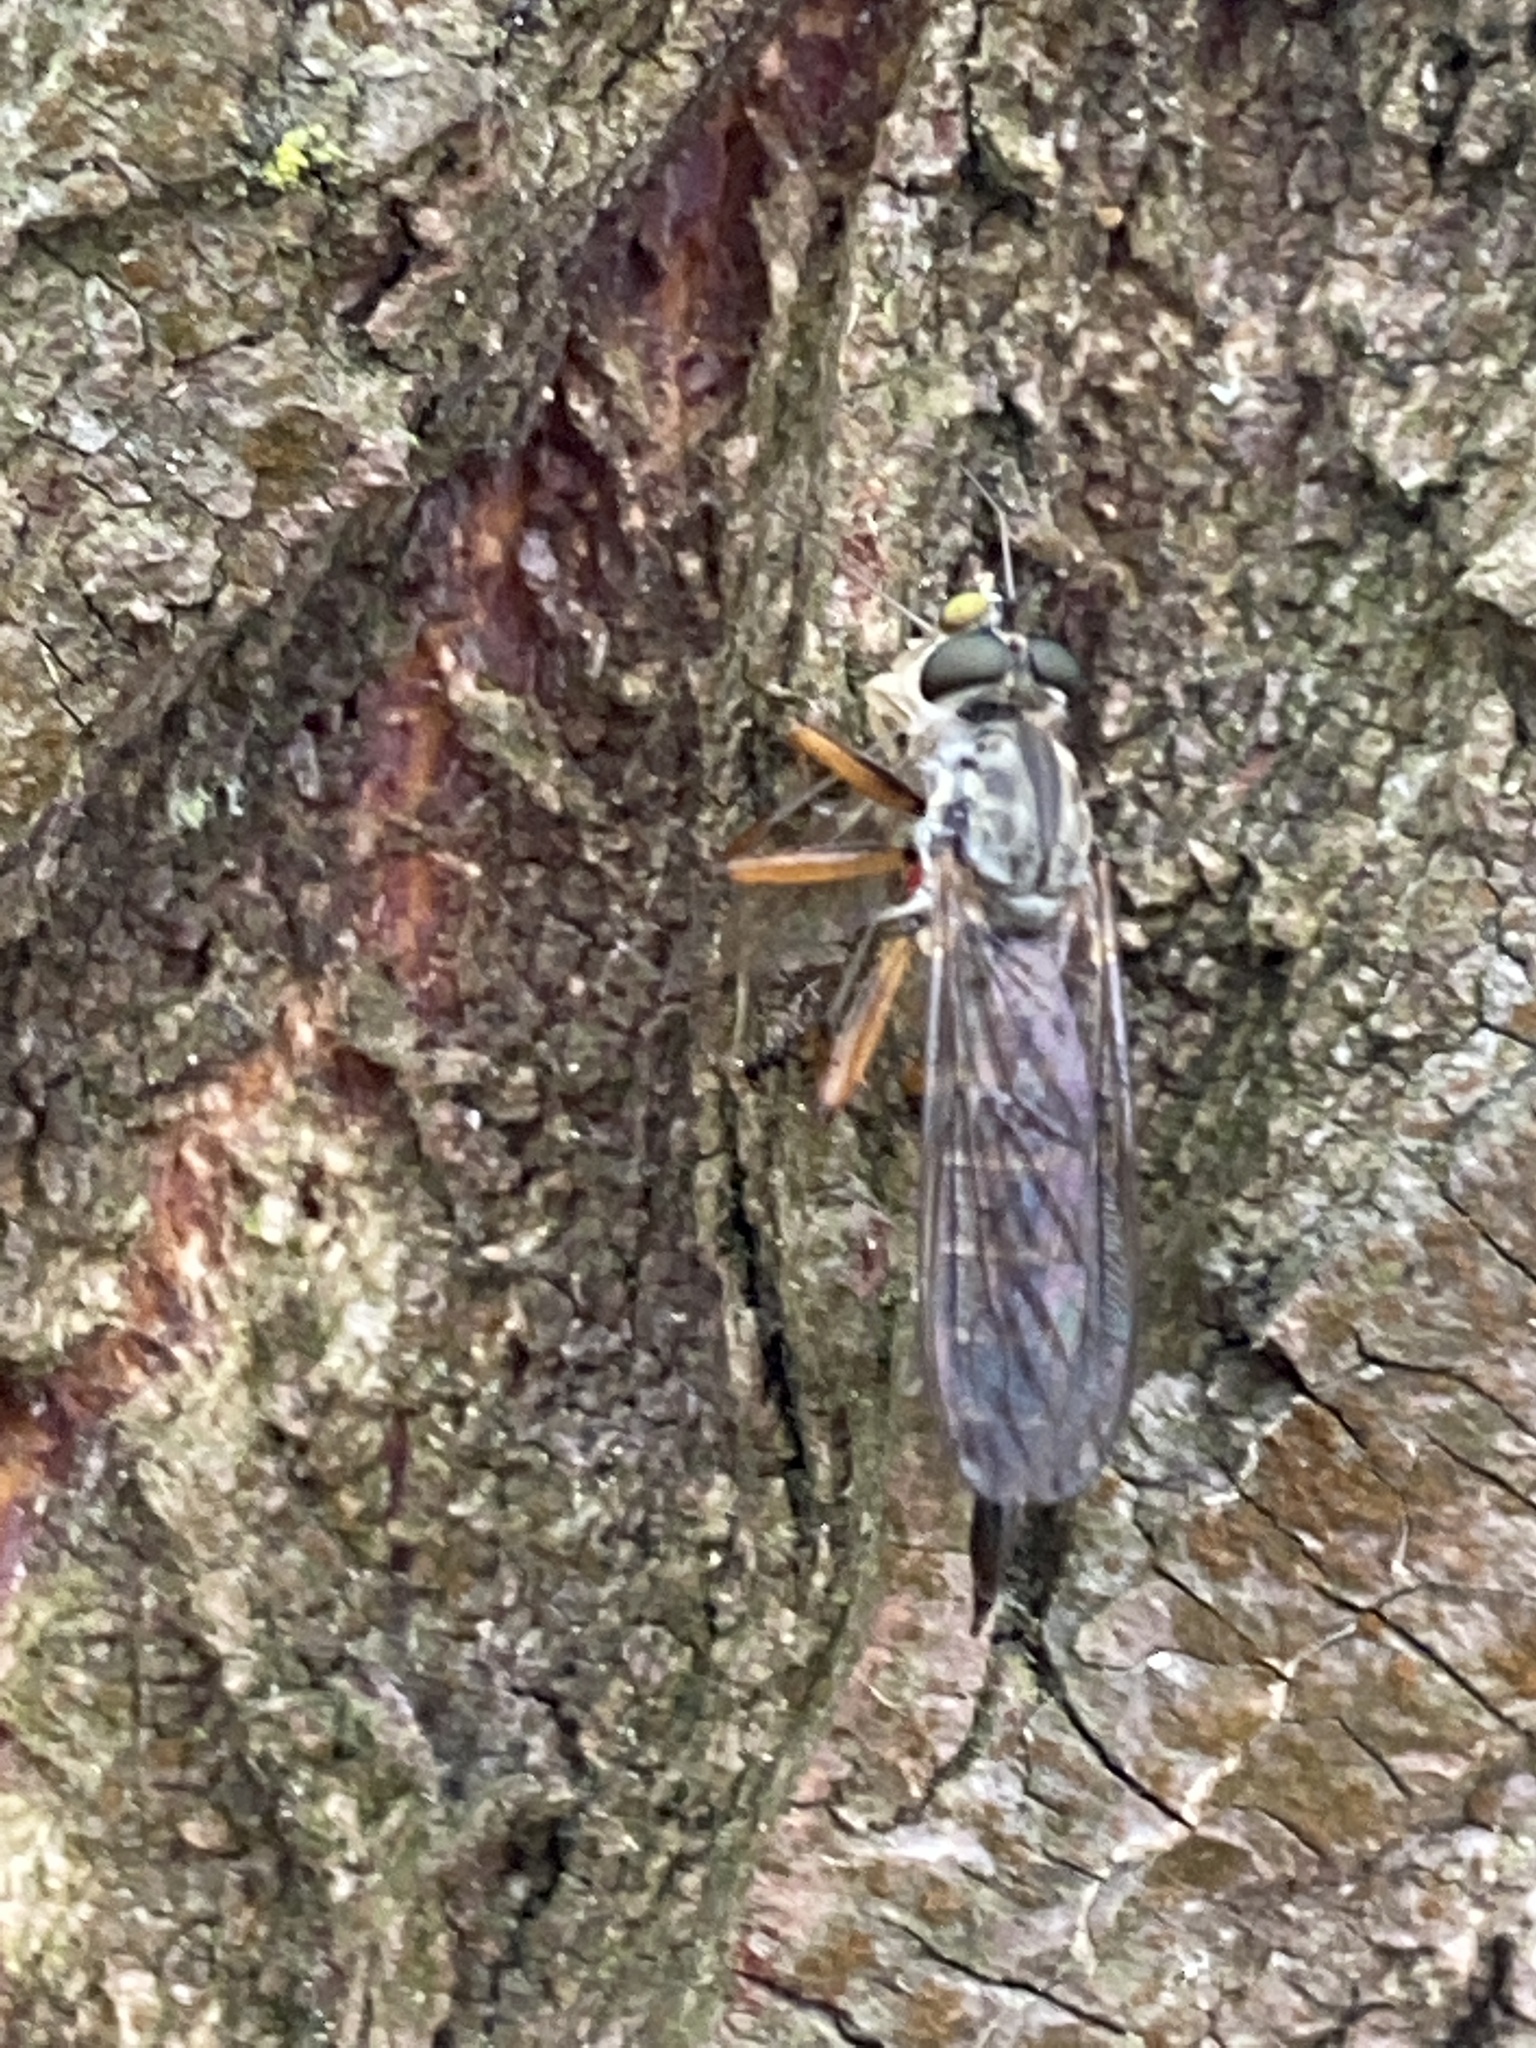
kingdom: Animalia
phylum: Arthropoda
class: Insecta
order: Diptera
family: Asilidae
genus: Neomochtherus
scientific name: Neomochtherus pallipes
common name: Devon red-legged robberfly
